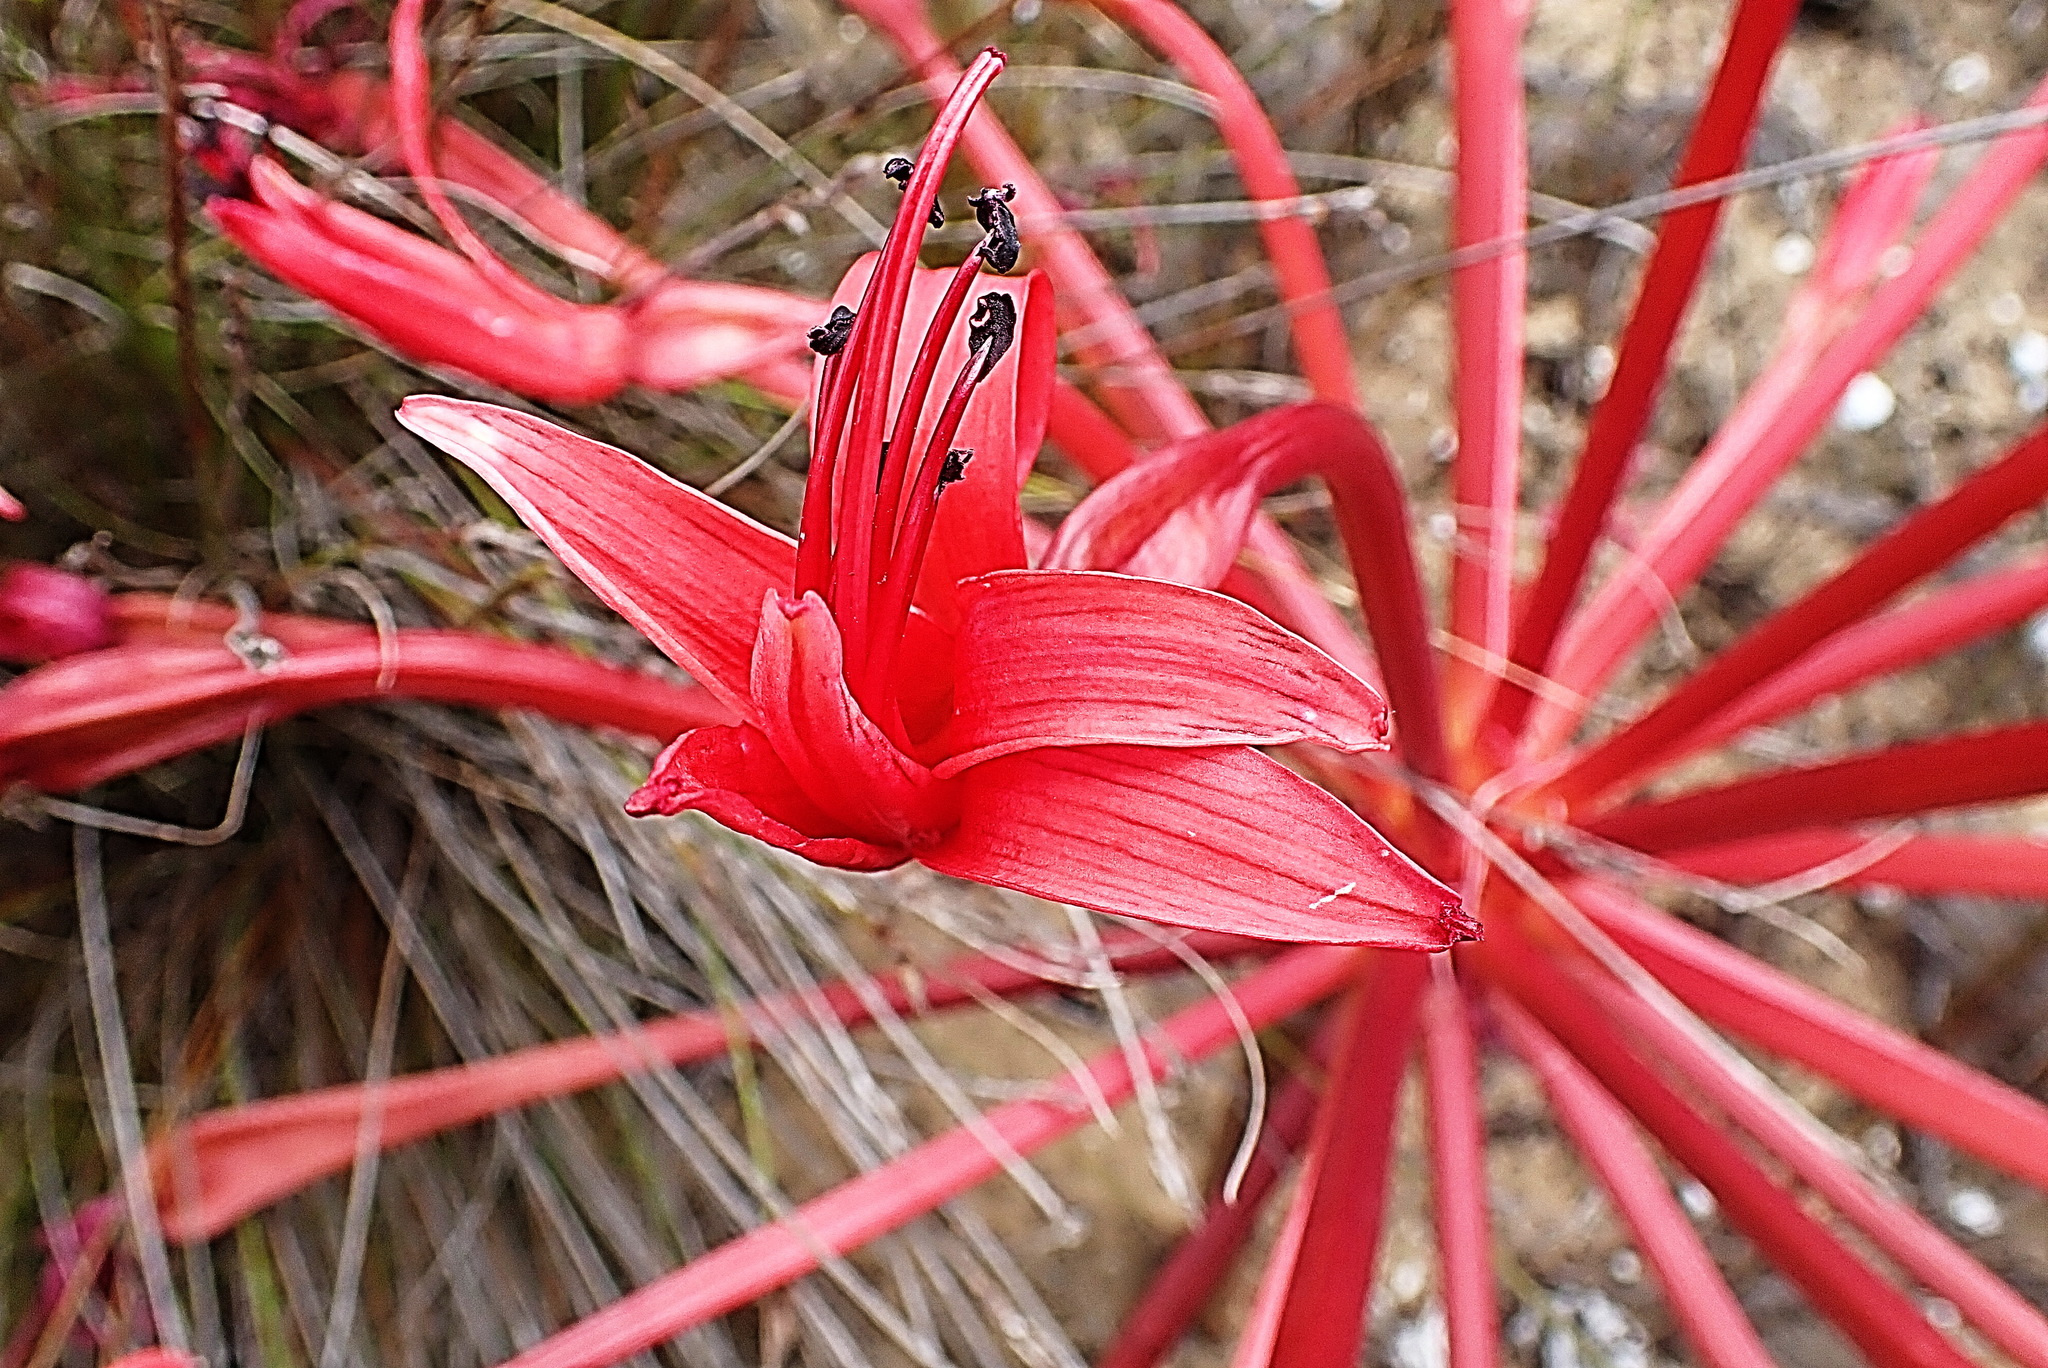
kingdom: Plantae
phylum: Tracheophyta
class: Liliopsida
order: Asparagales
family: Amaryllidaceae
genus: Brunsvigia
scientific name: Brunsvigia orientalis
